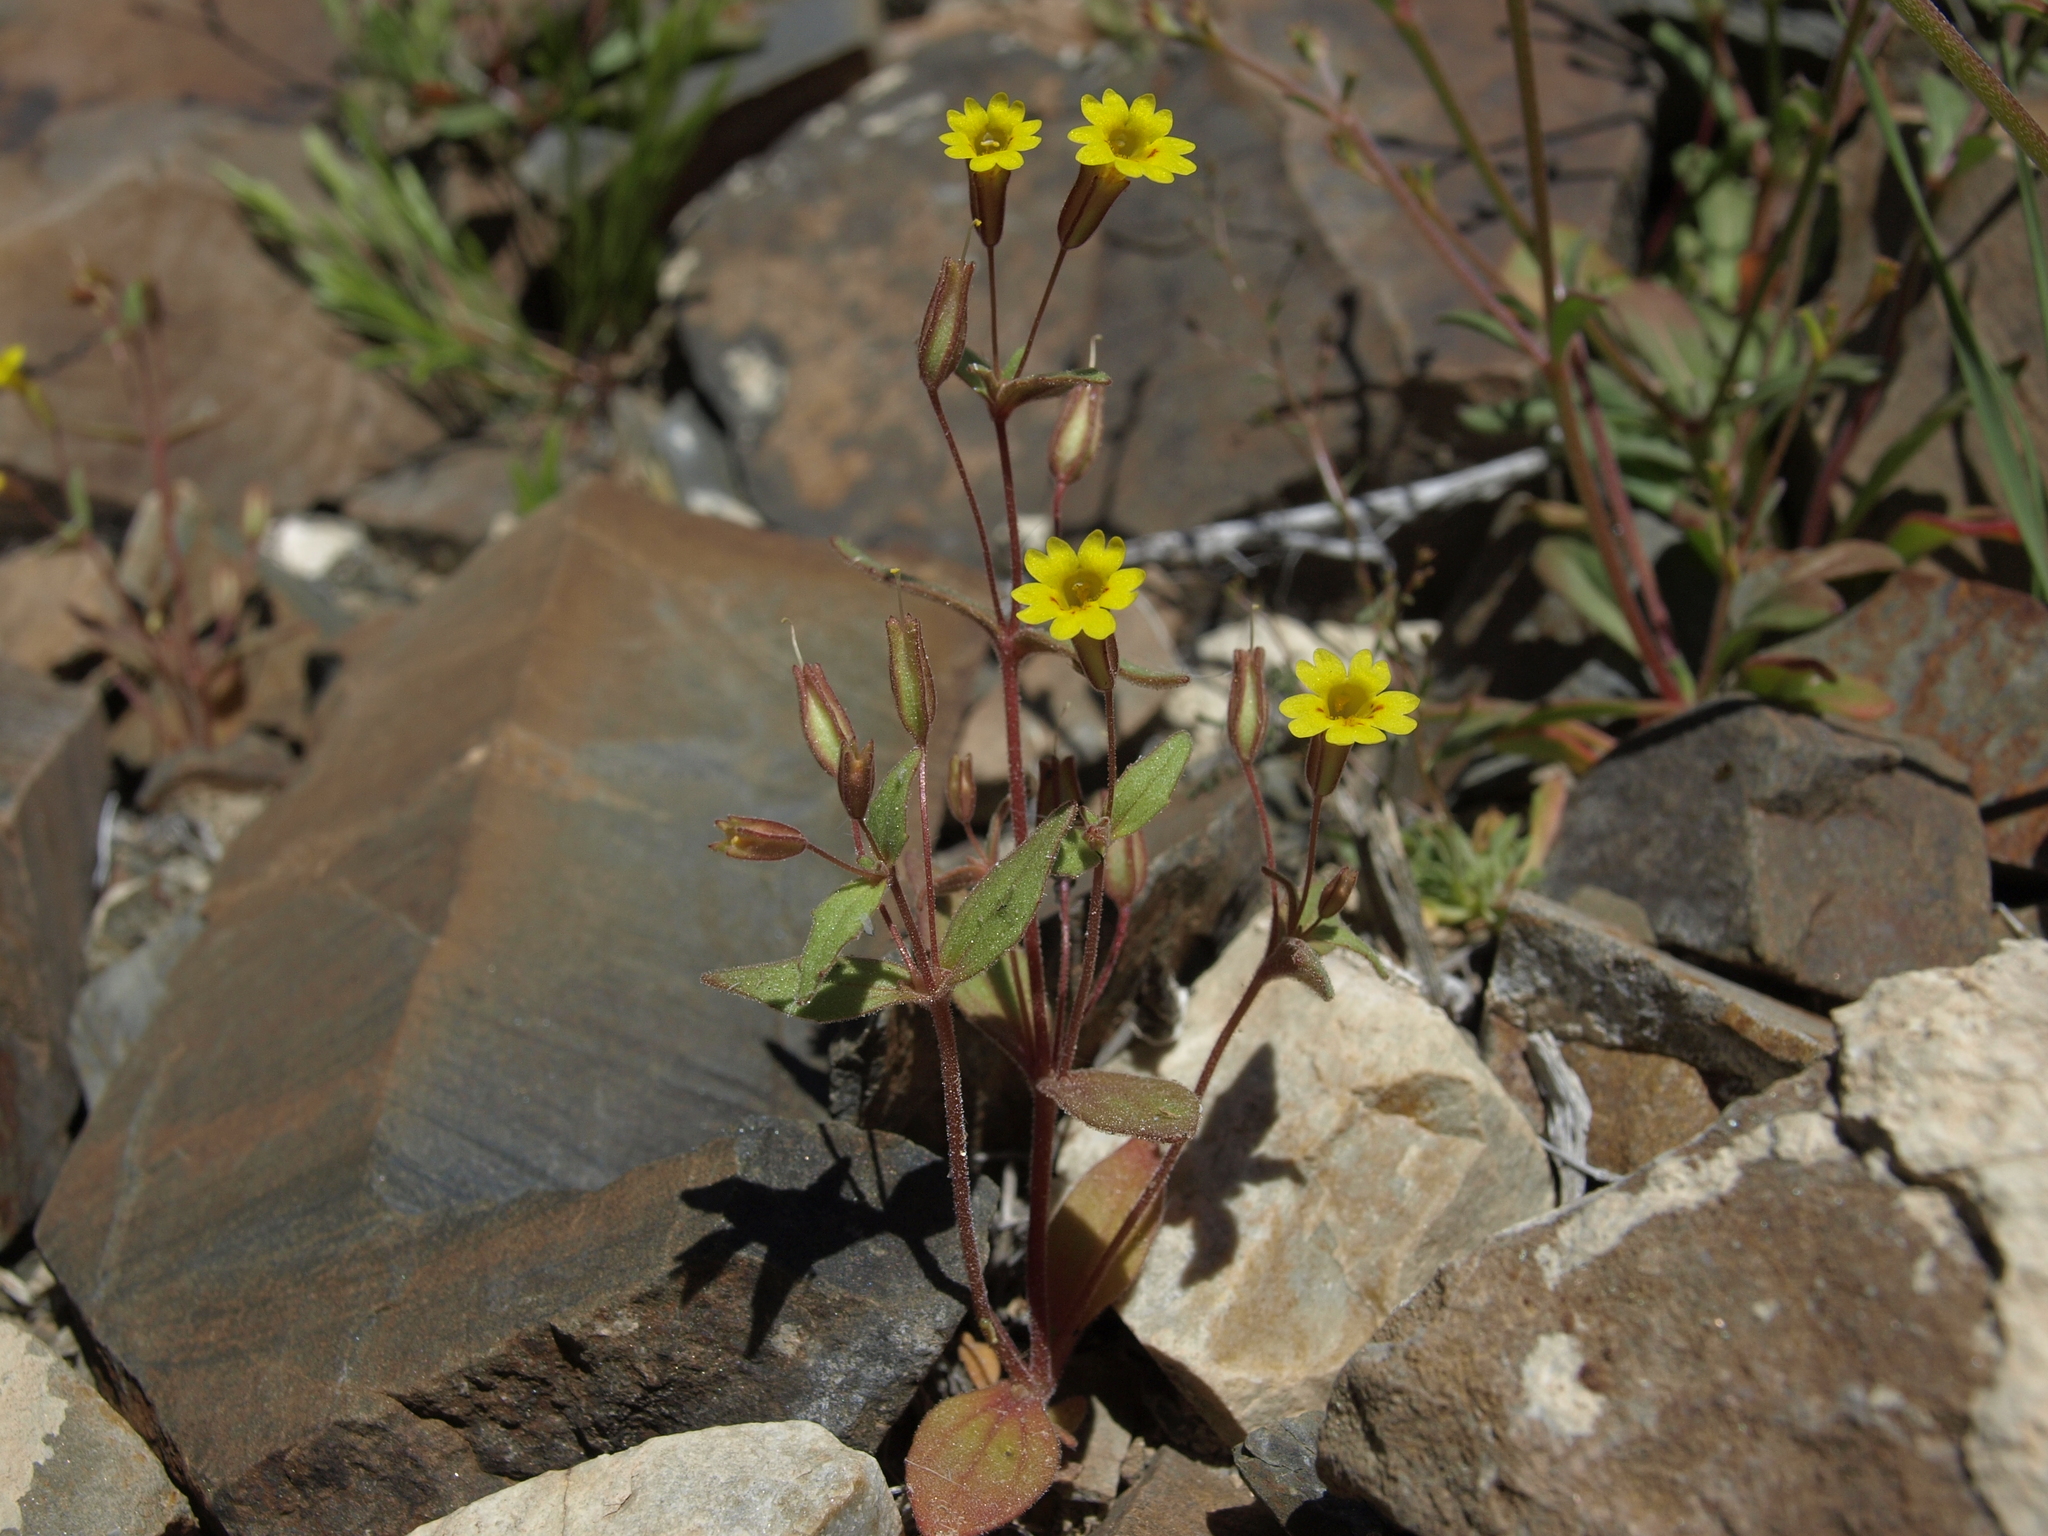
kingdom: Plantae
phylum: Tracheophyta
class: Magnoliopsida
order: Lamiales
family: Phrymaceae
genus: Erythranthe
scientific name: Erythranthe calcicola
